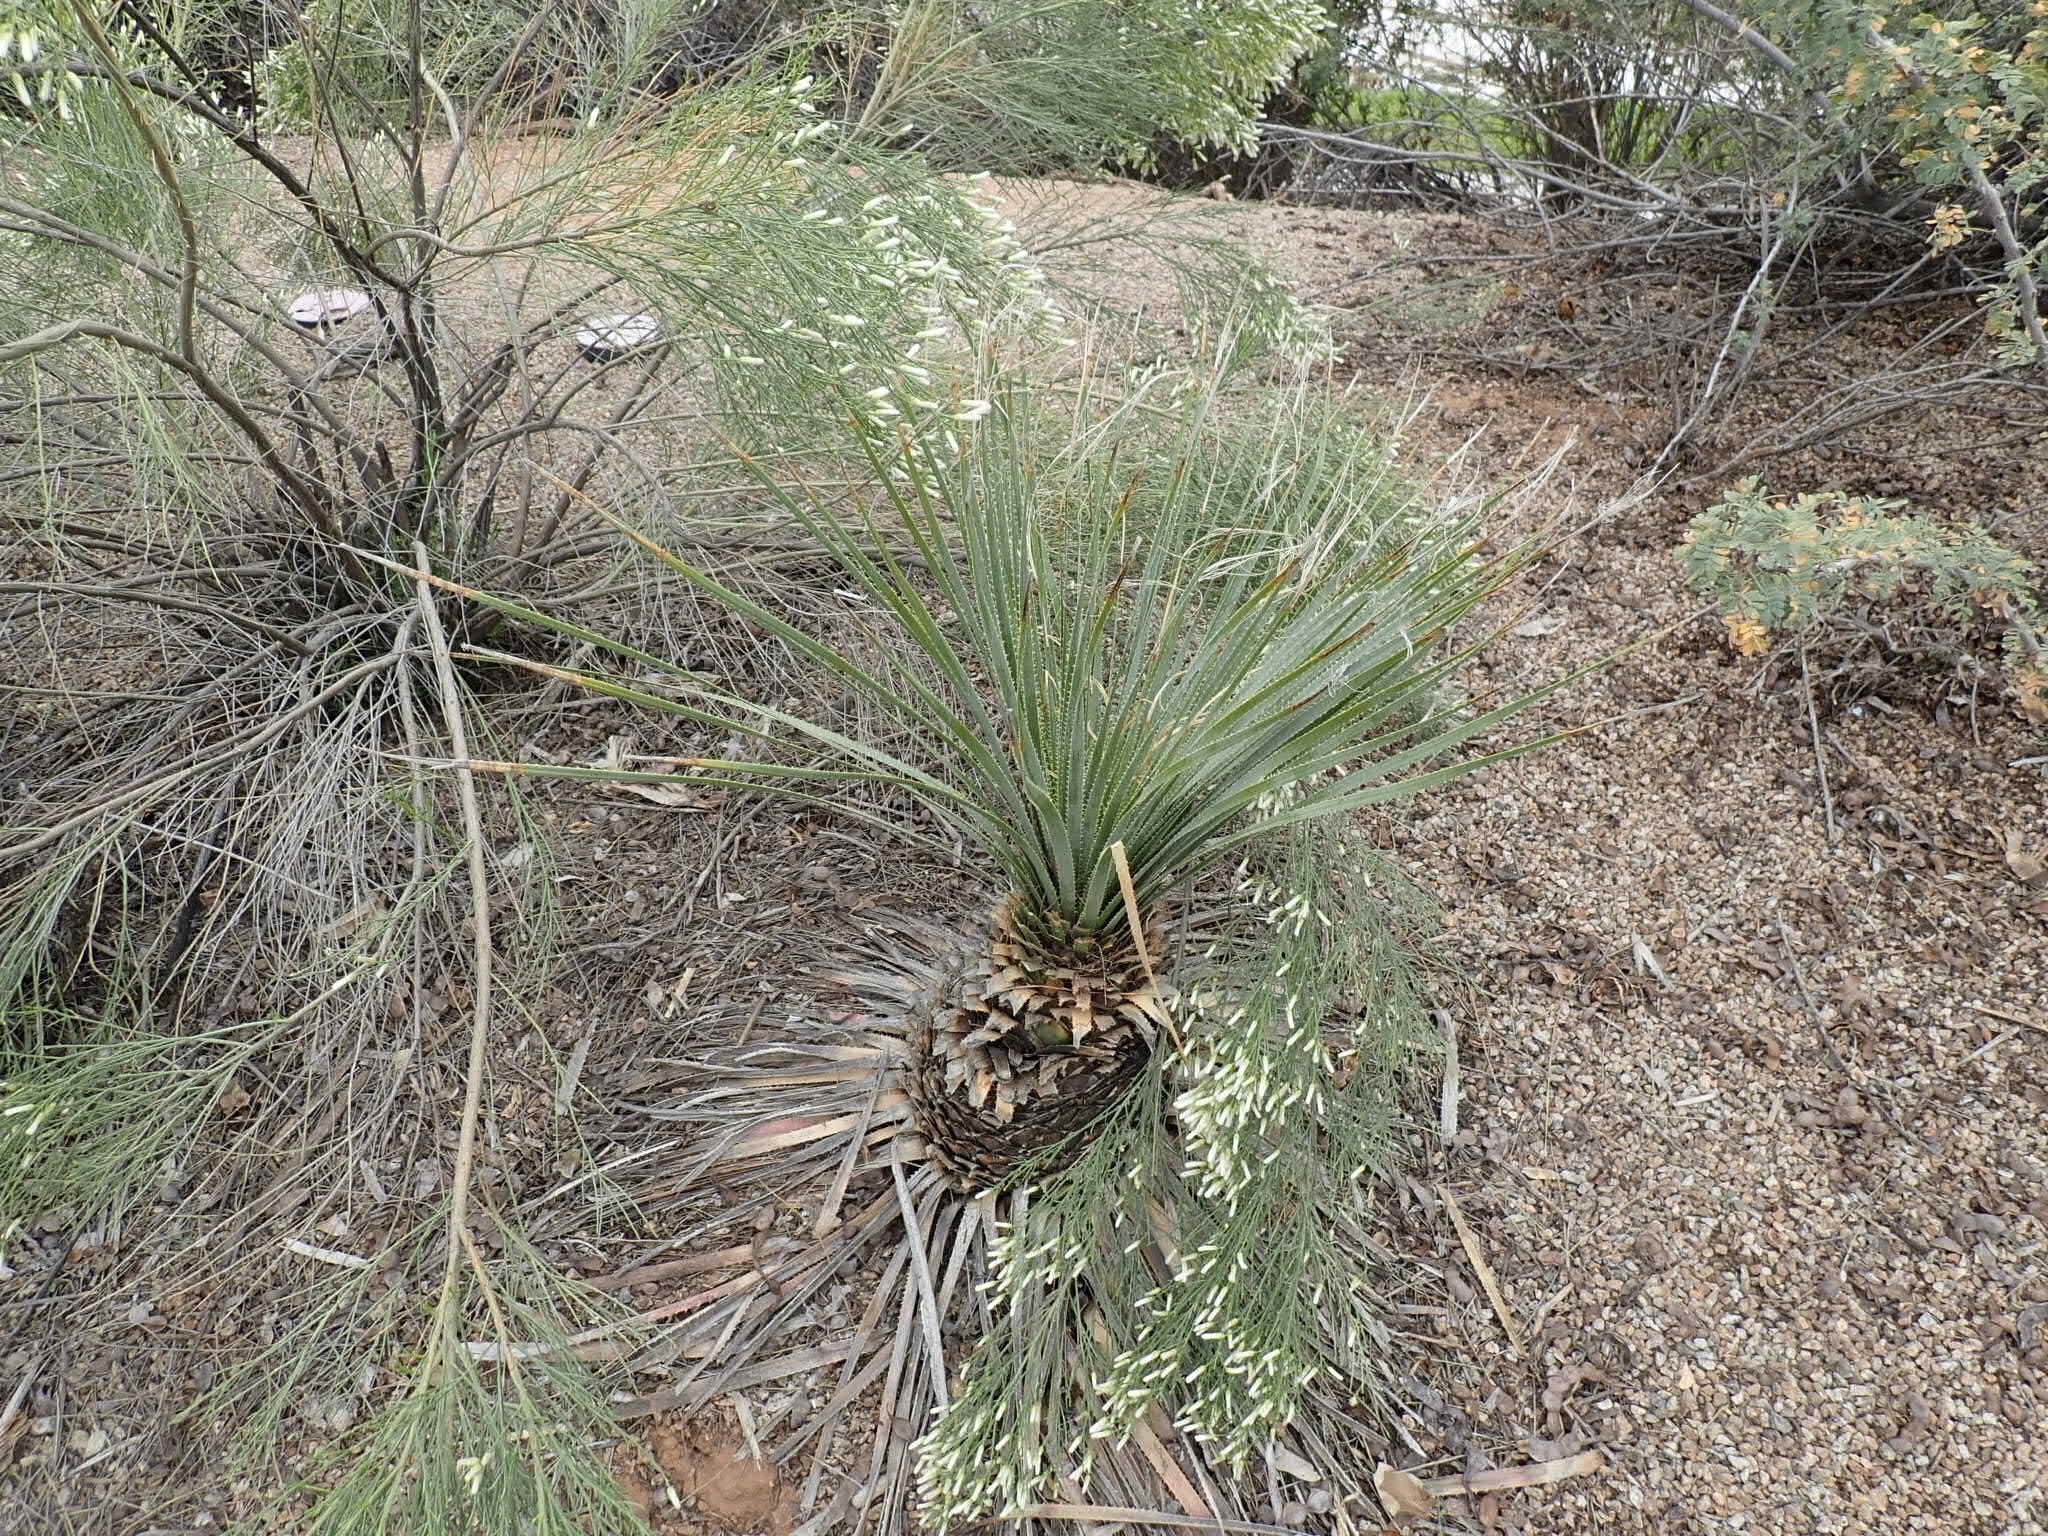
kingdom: Plantae
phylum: Tracheophyta
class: Liliopsida
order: Asparagales
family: Asparagaceae
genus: Dasylirion
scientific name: Dasylirion wheeleri
